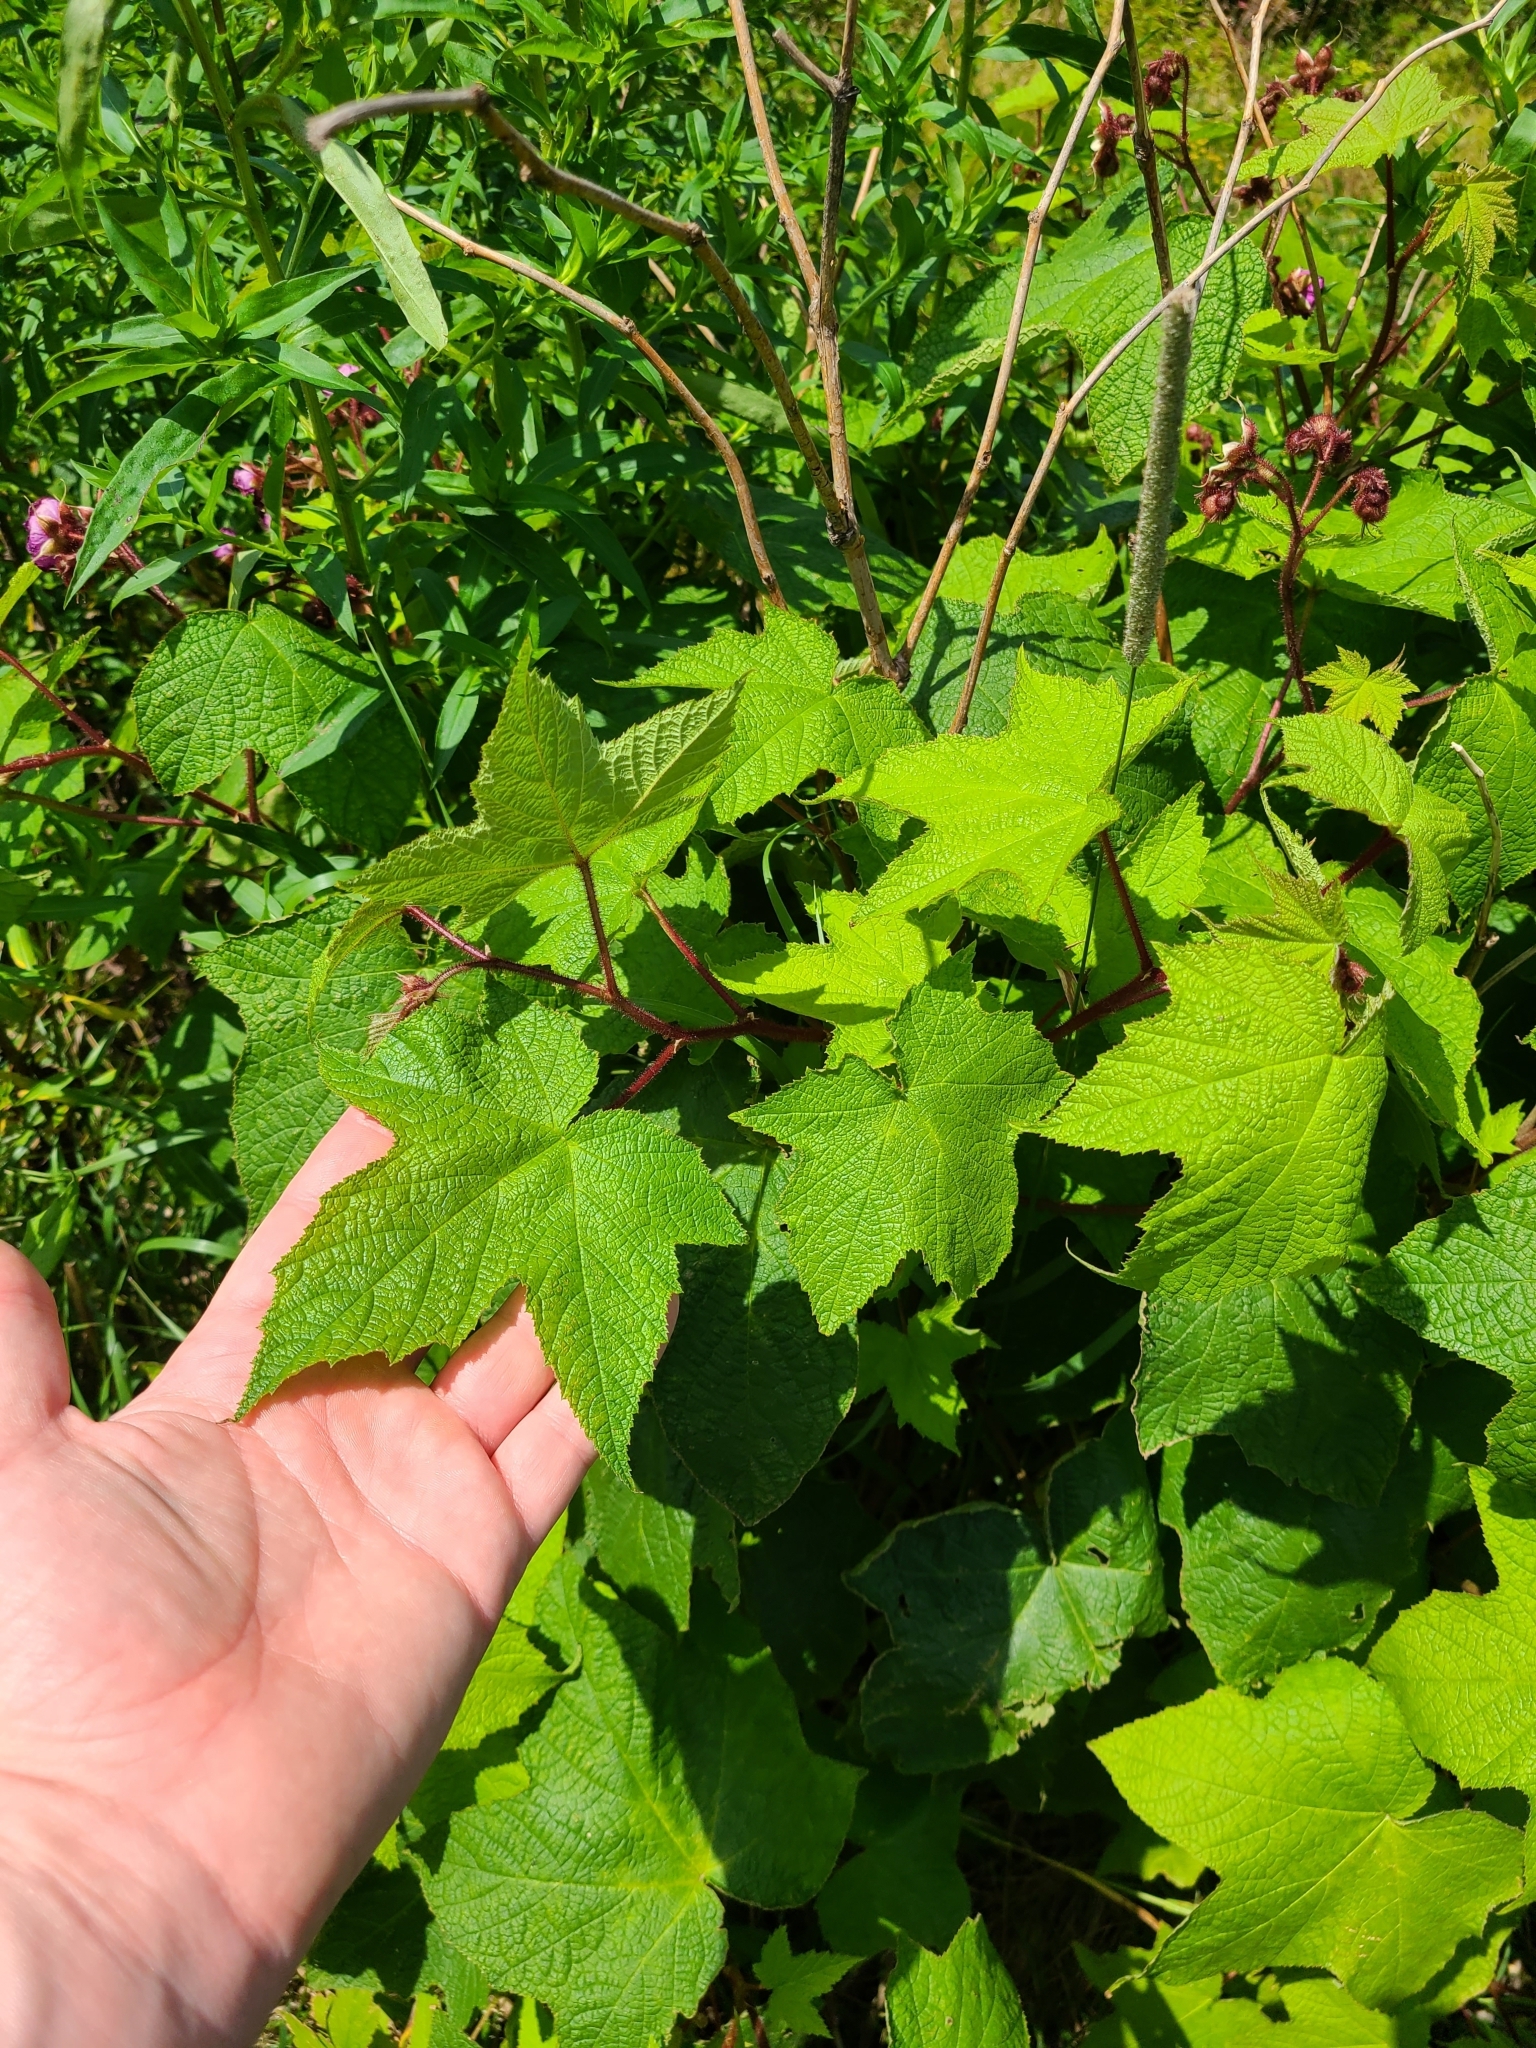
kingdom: Plantae
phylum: Tracheophyta
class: Magnoliopsida
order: Rosales
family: Rosaceae
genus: Rubus
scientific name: Rubus odoratus
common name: Purple-flowered raspberry
